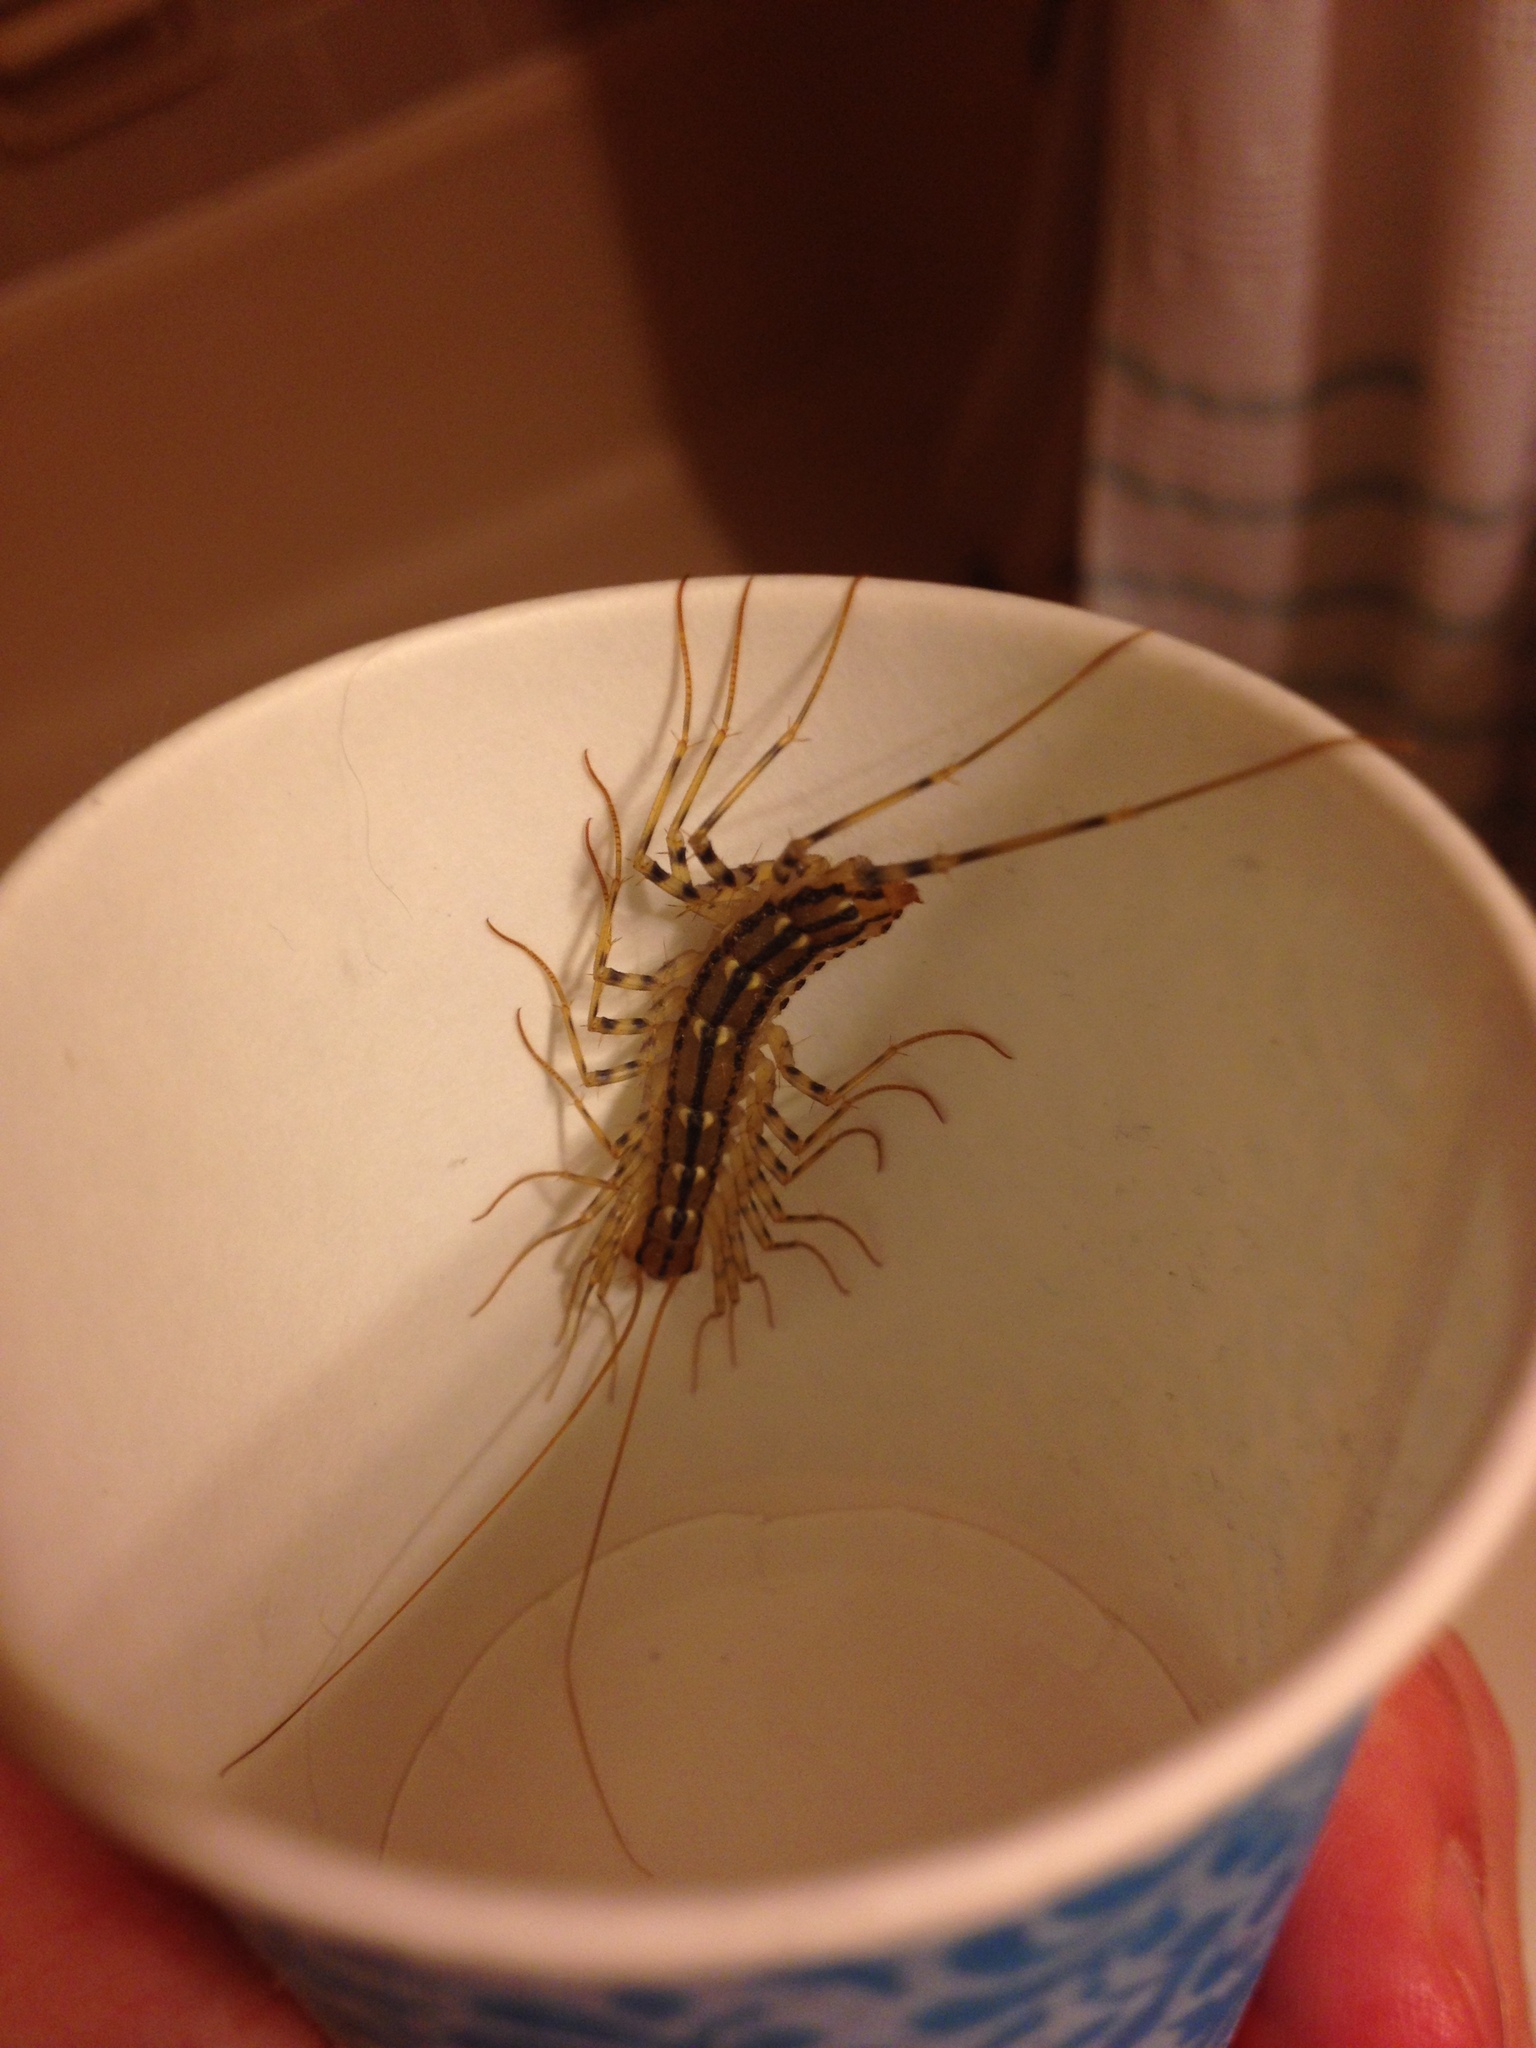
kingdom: Animalia
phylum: Arthropoda
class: Chilopoda
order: Scutigeromorpha
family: Scutigeridae
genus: Scutigera
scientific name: Scutigera coleoptrata
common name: House centipede
